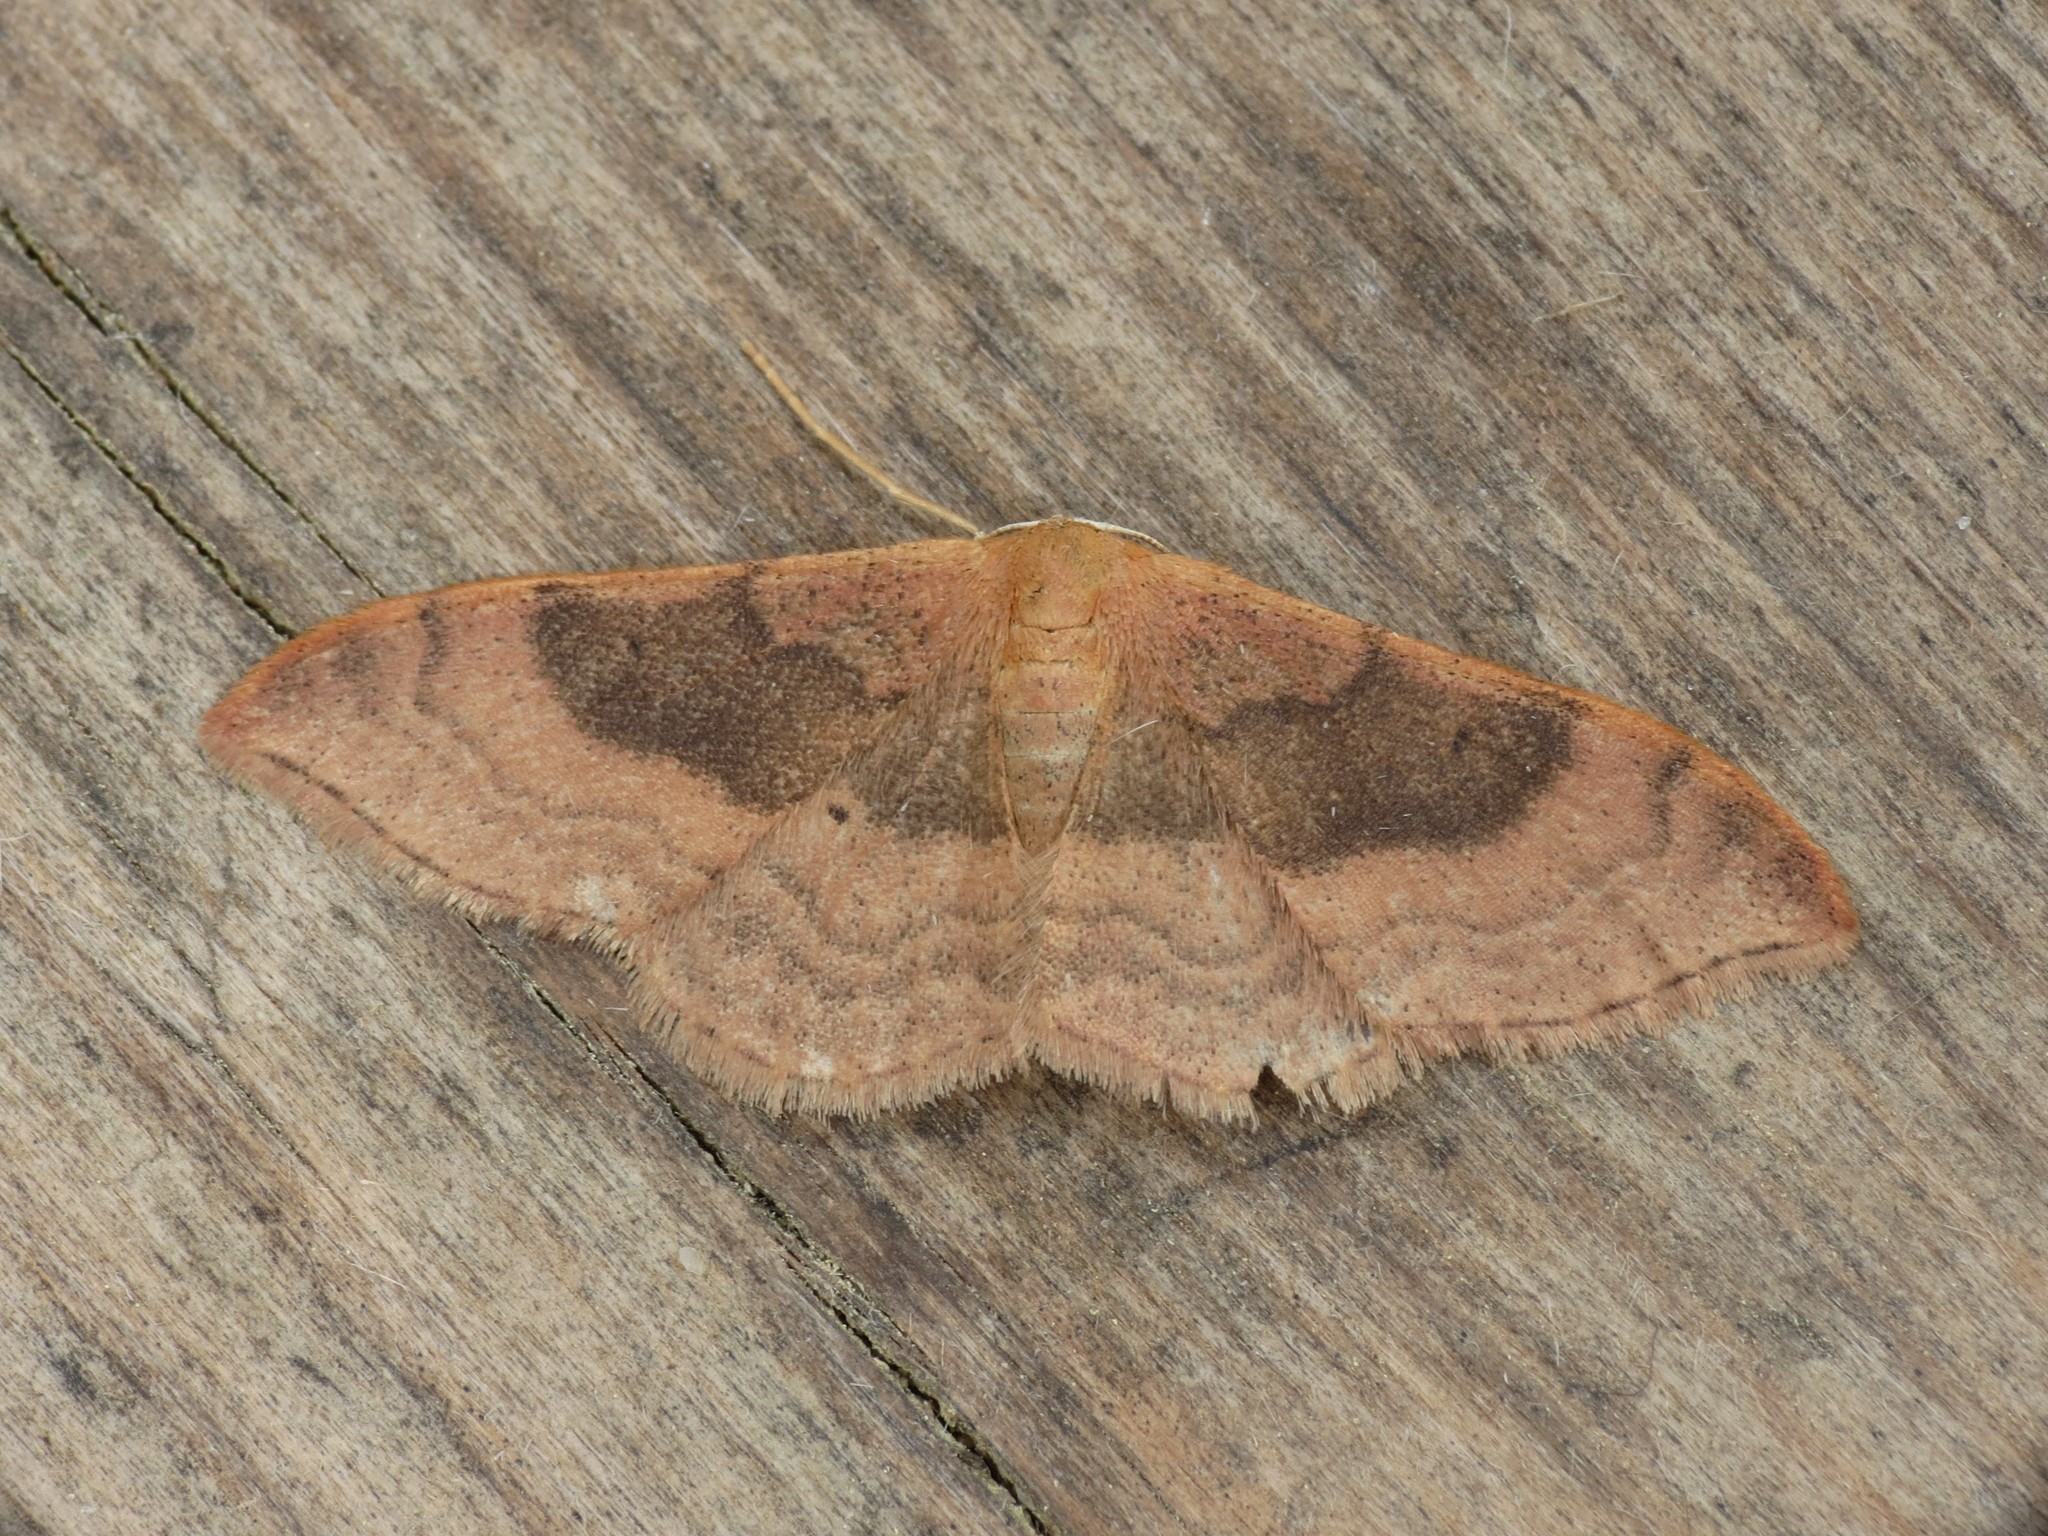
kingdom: Animalia
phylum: Arthropoda
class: Insecta
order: Lepidoptera
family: Geometridae
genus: Idaea
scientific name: Idaea degeneraria
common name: Portland ribbon wave
